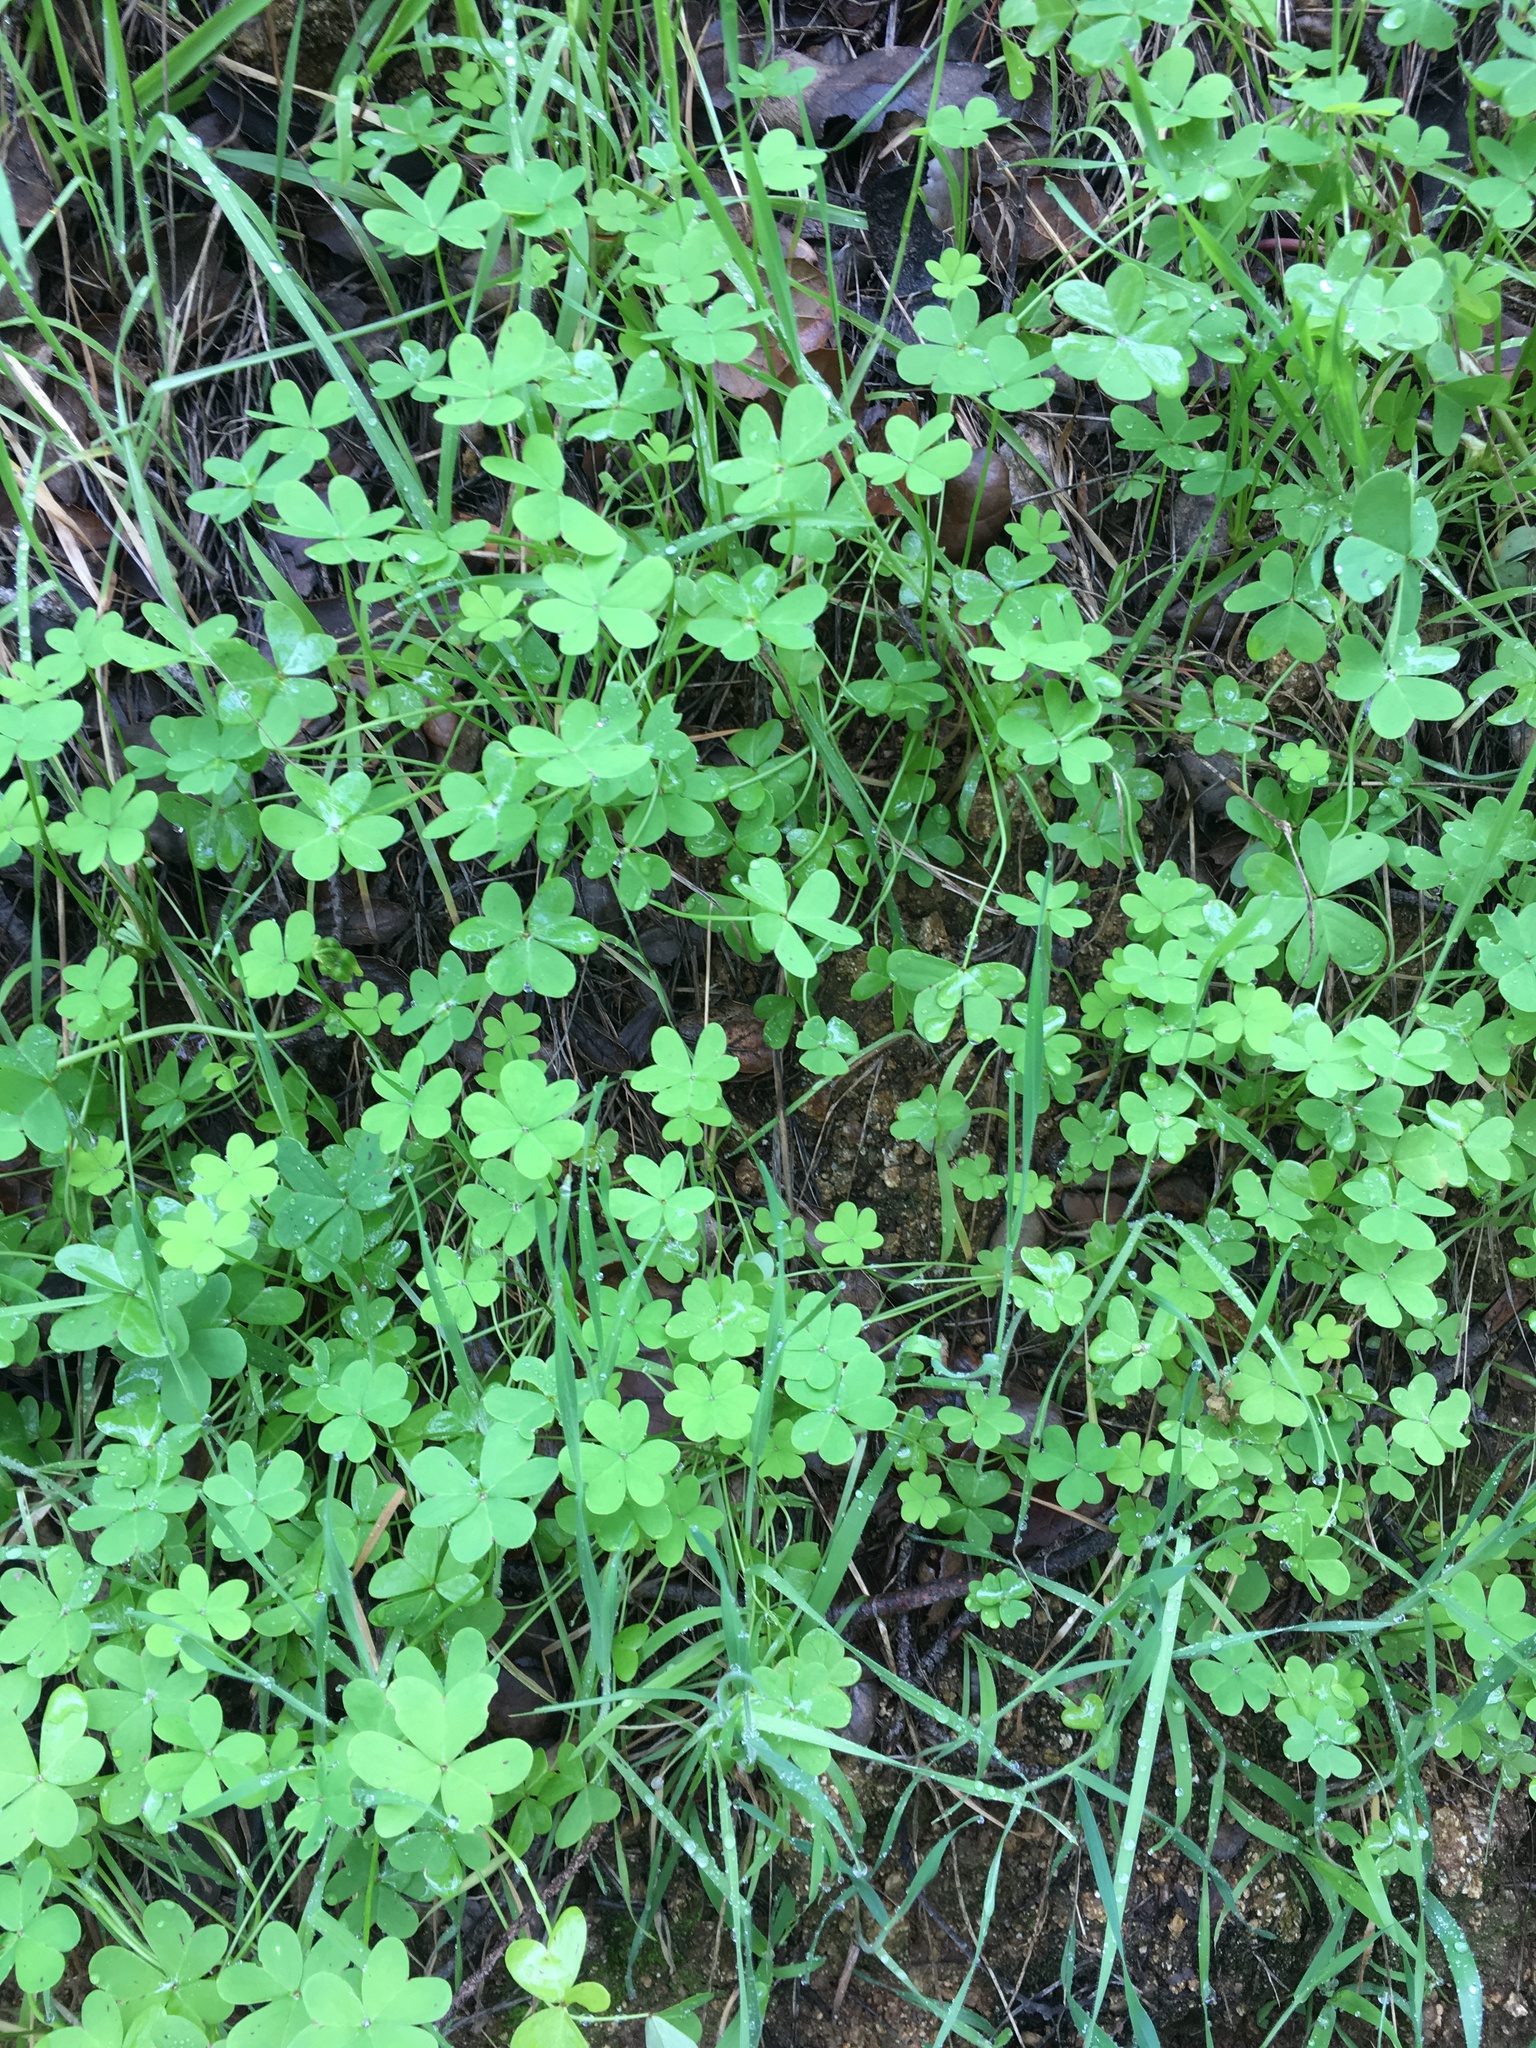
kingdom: Plantae
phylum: Tracheophyta
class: Magnoliopsida
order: Oxalidales
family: Oxalidaceae
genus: Oxalis
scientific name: Oxalis pes-caprae
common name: Bermuda-buttercup
